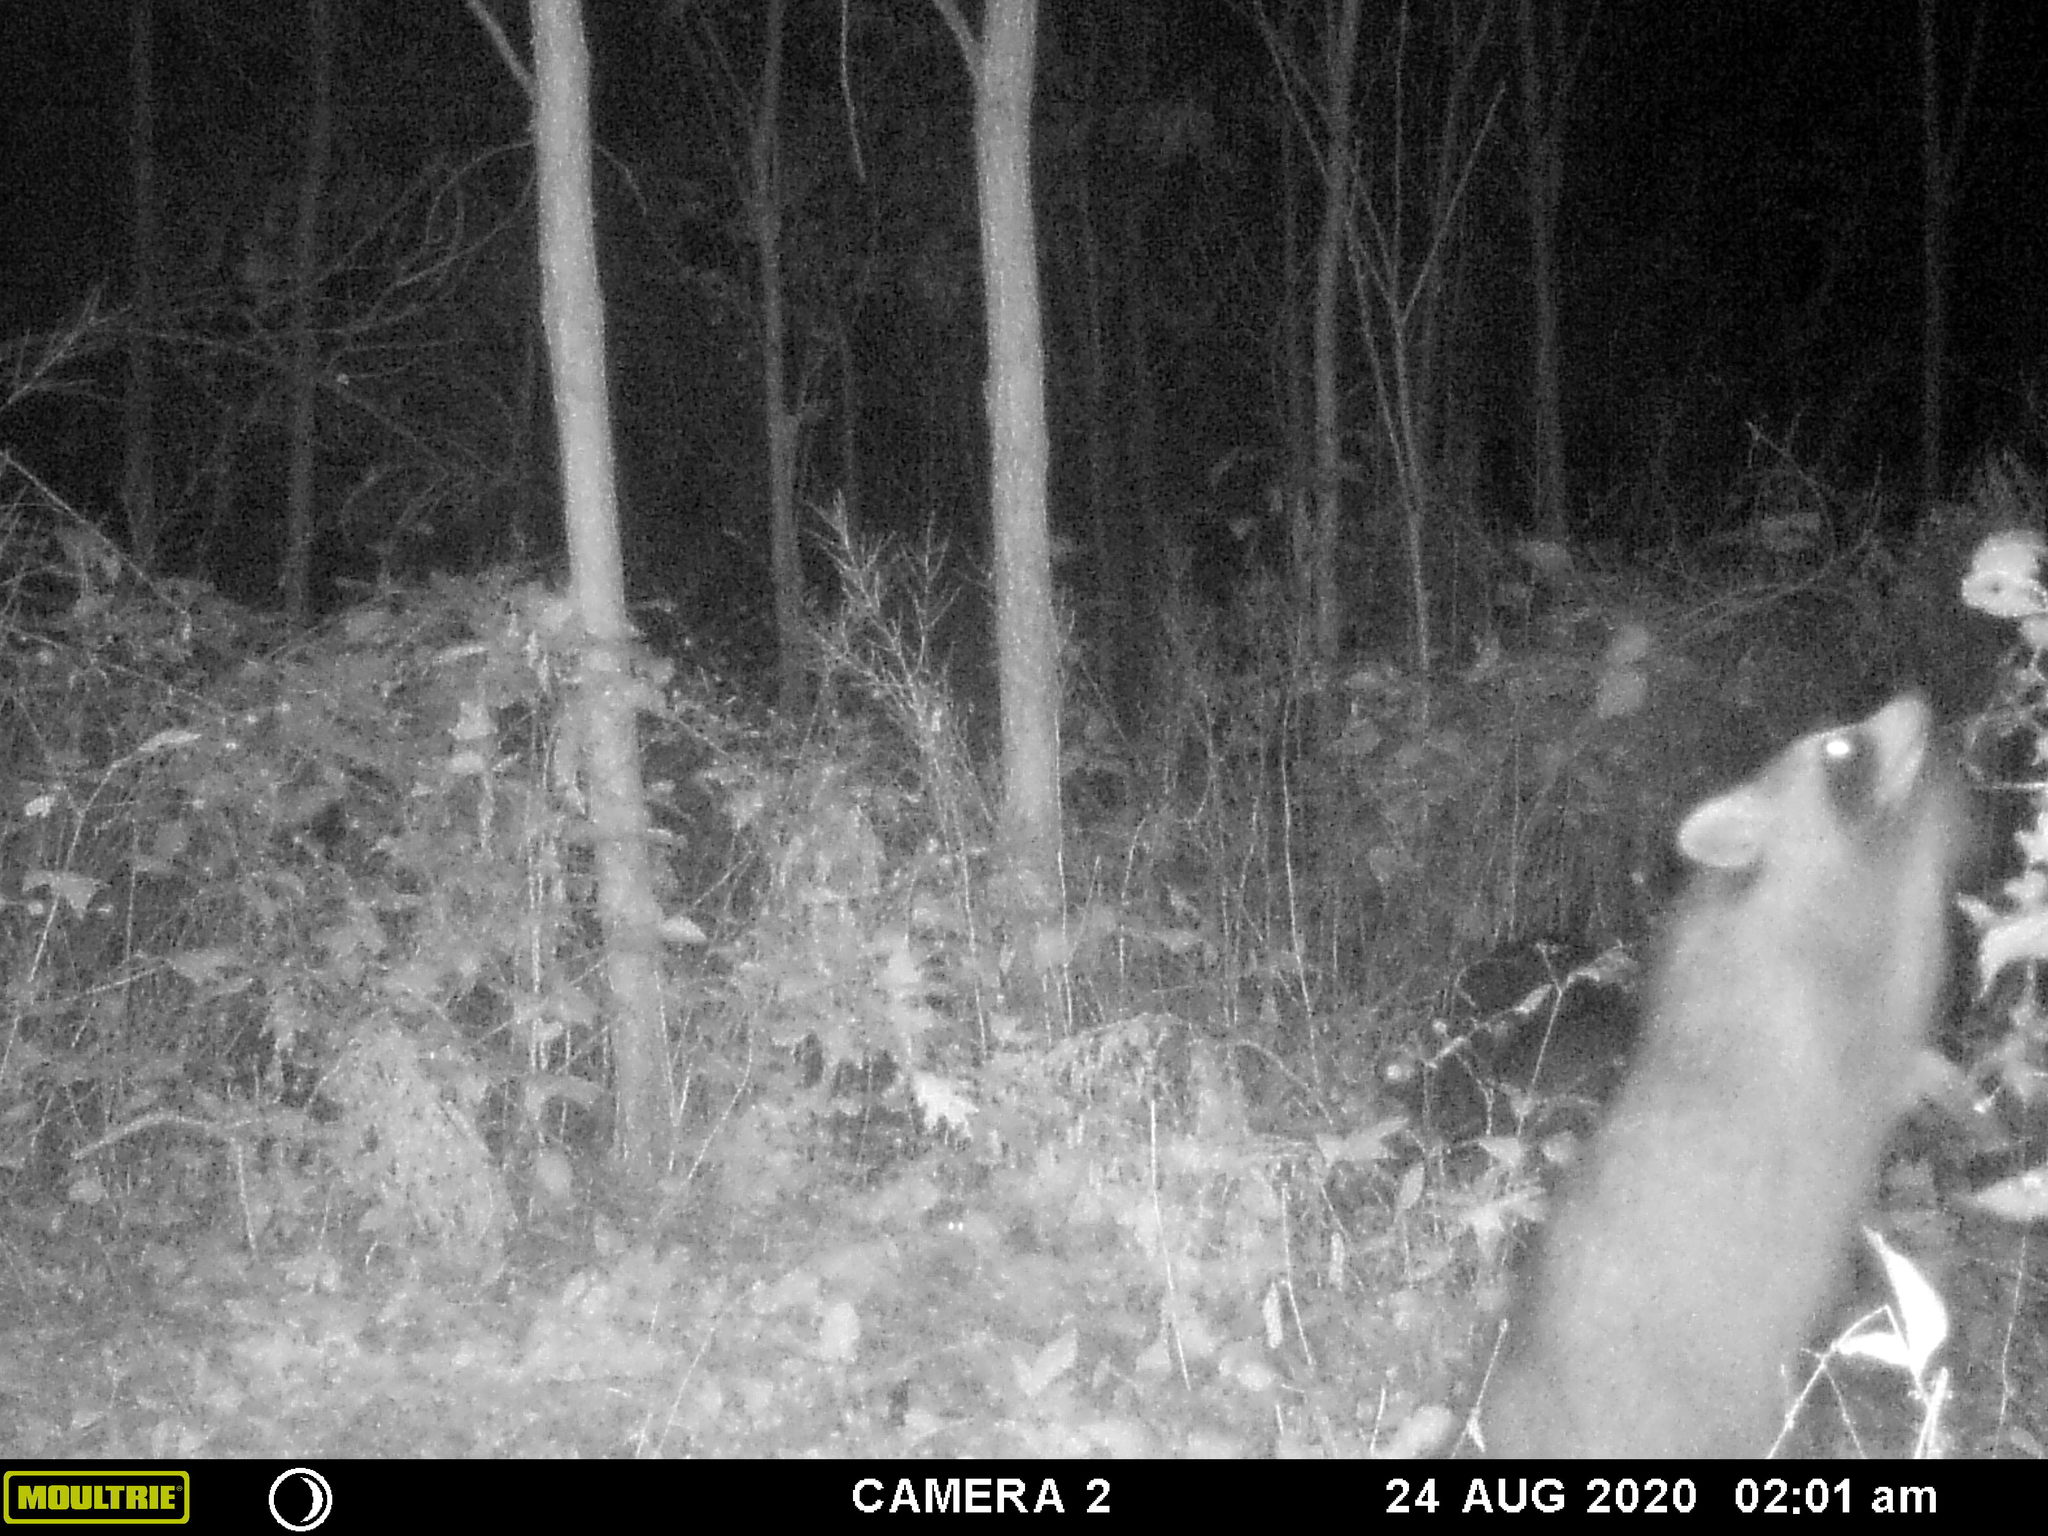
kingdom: Animalia
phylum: Chordata
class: Mammalia
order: Carnivora
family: Procyonidae
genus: Procyon
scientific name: Procyon lotor
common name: Raccoon
